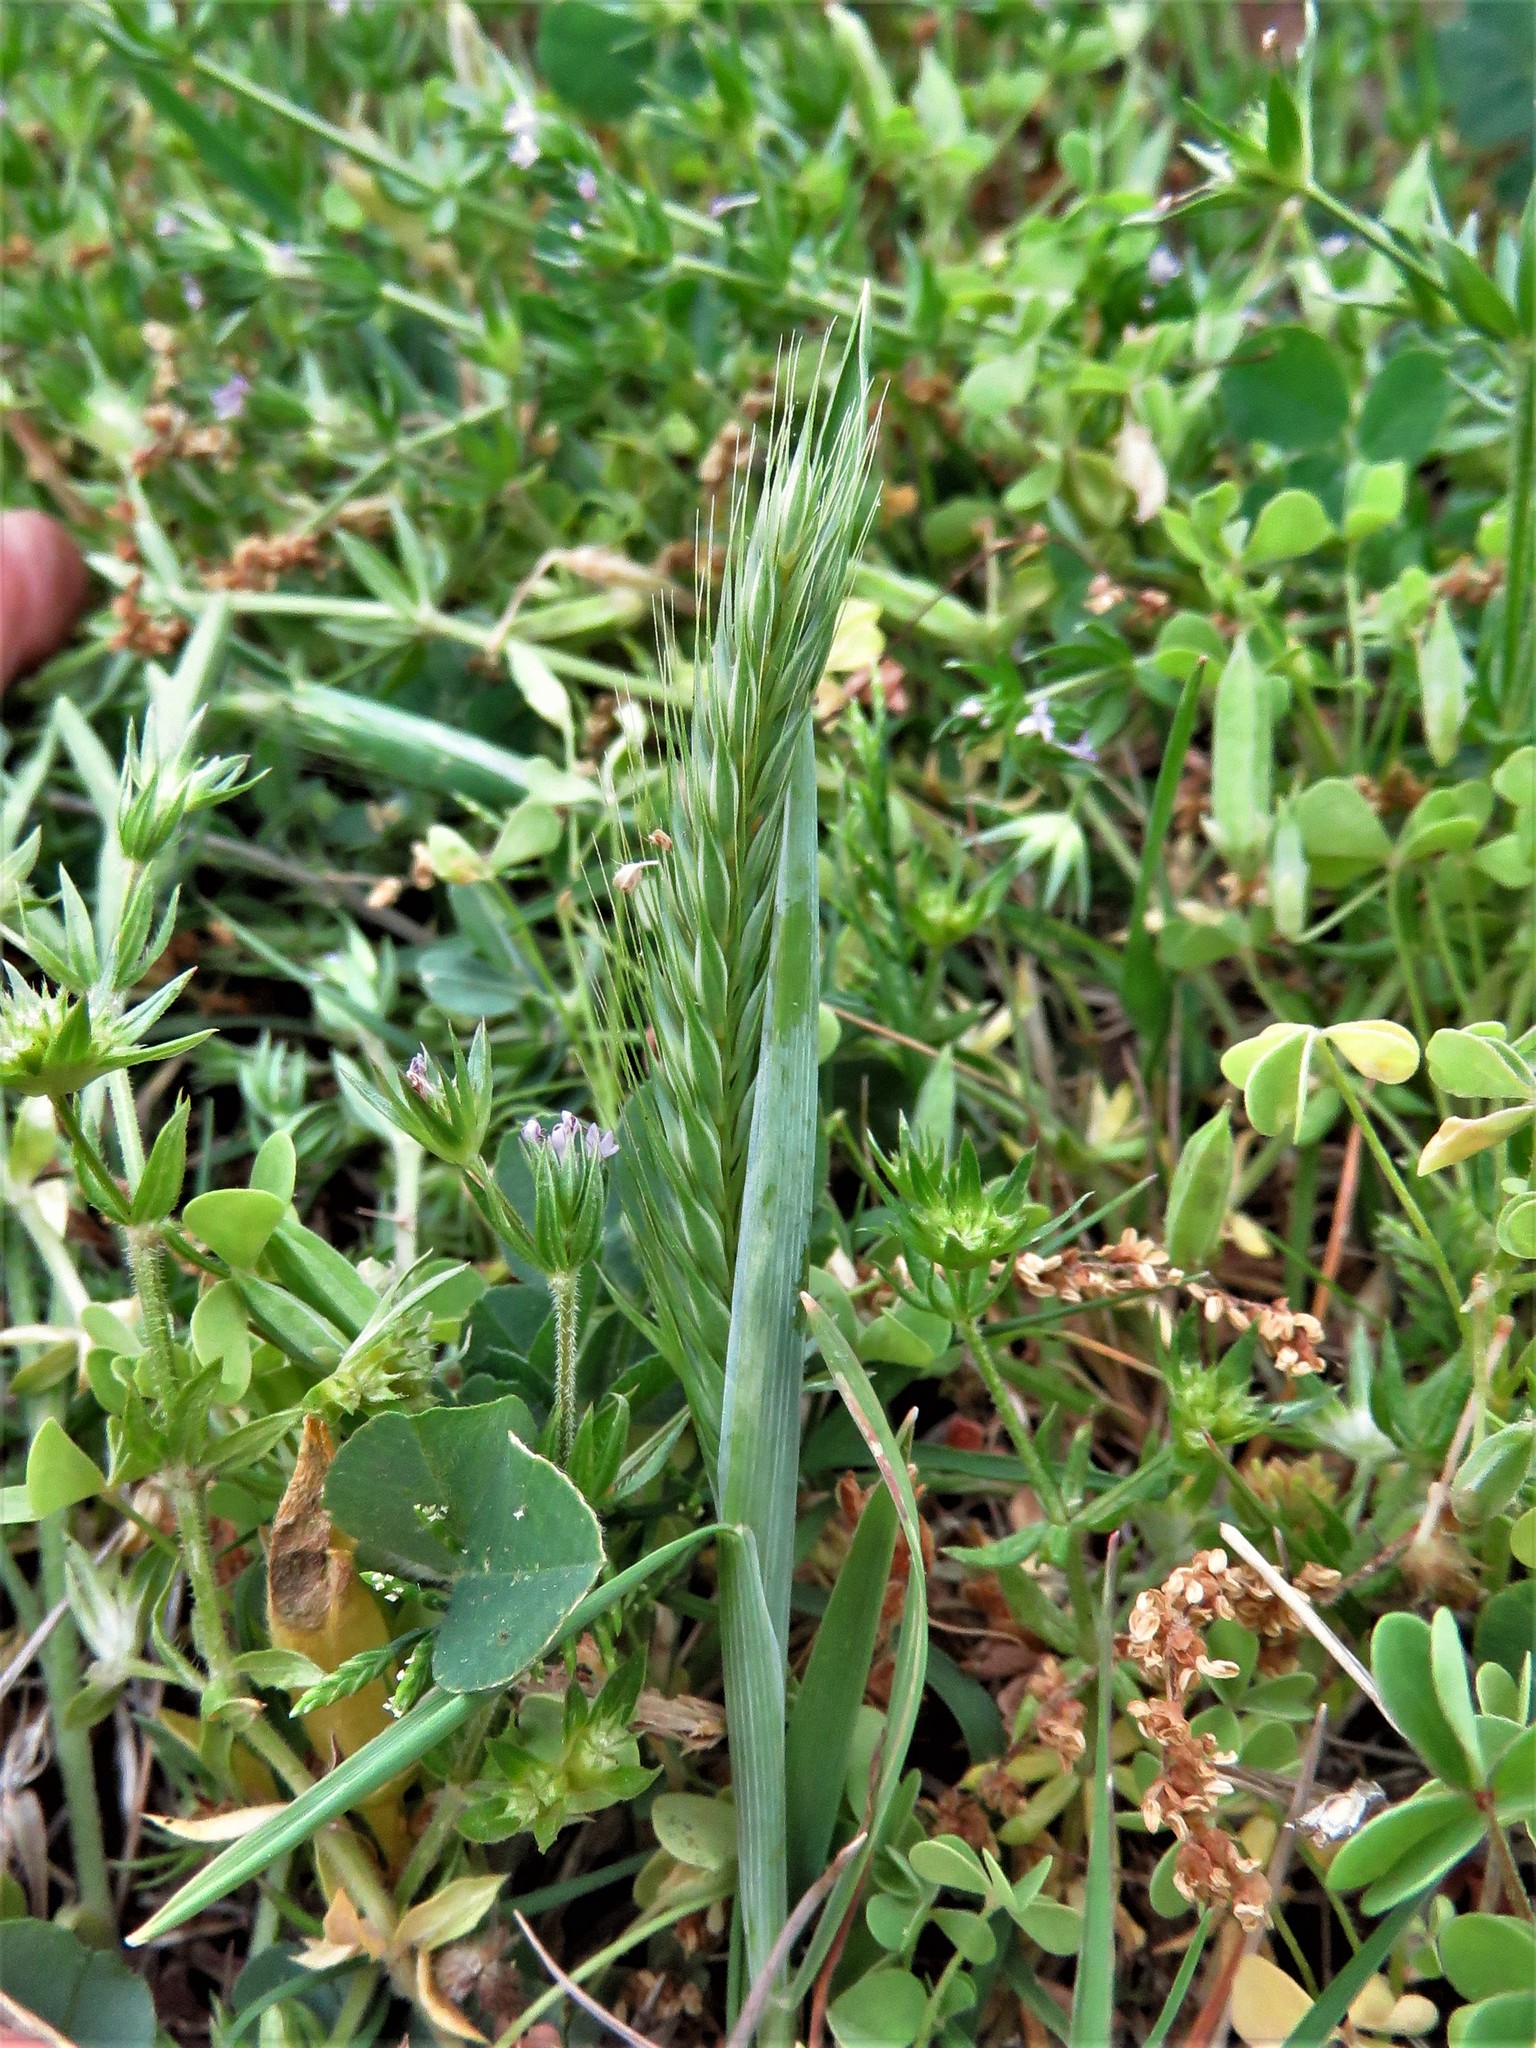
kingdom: Plantae
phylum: Tracheophyta
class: Liliopsida
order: Poales
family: Poaceae
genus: Hordeum
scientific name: Hordeum pusillum
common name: Little barley
